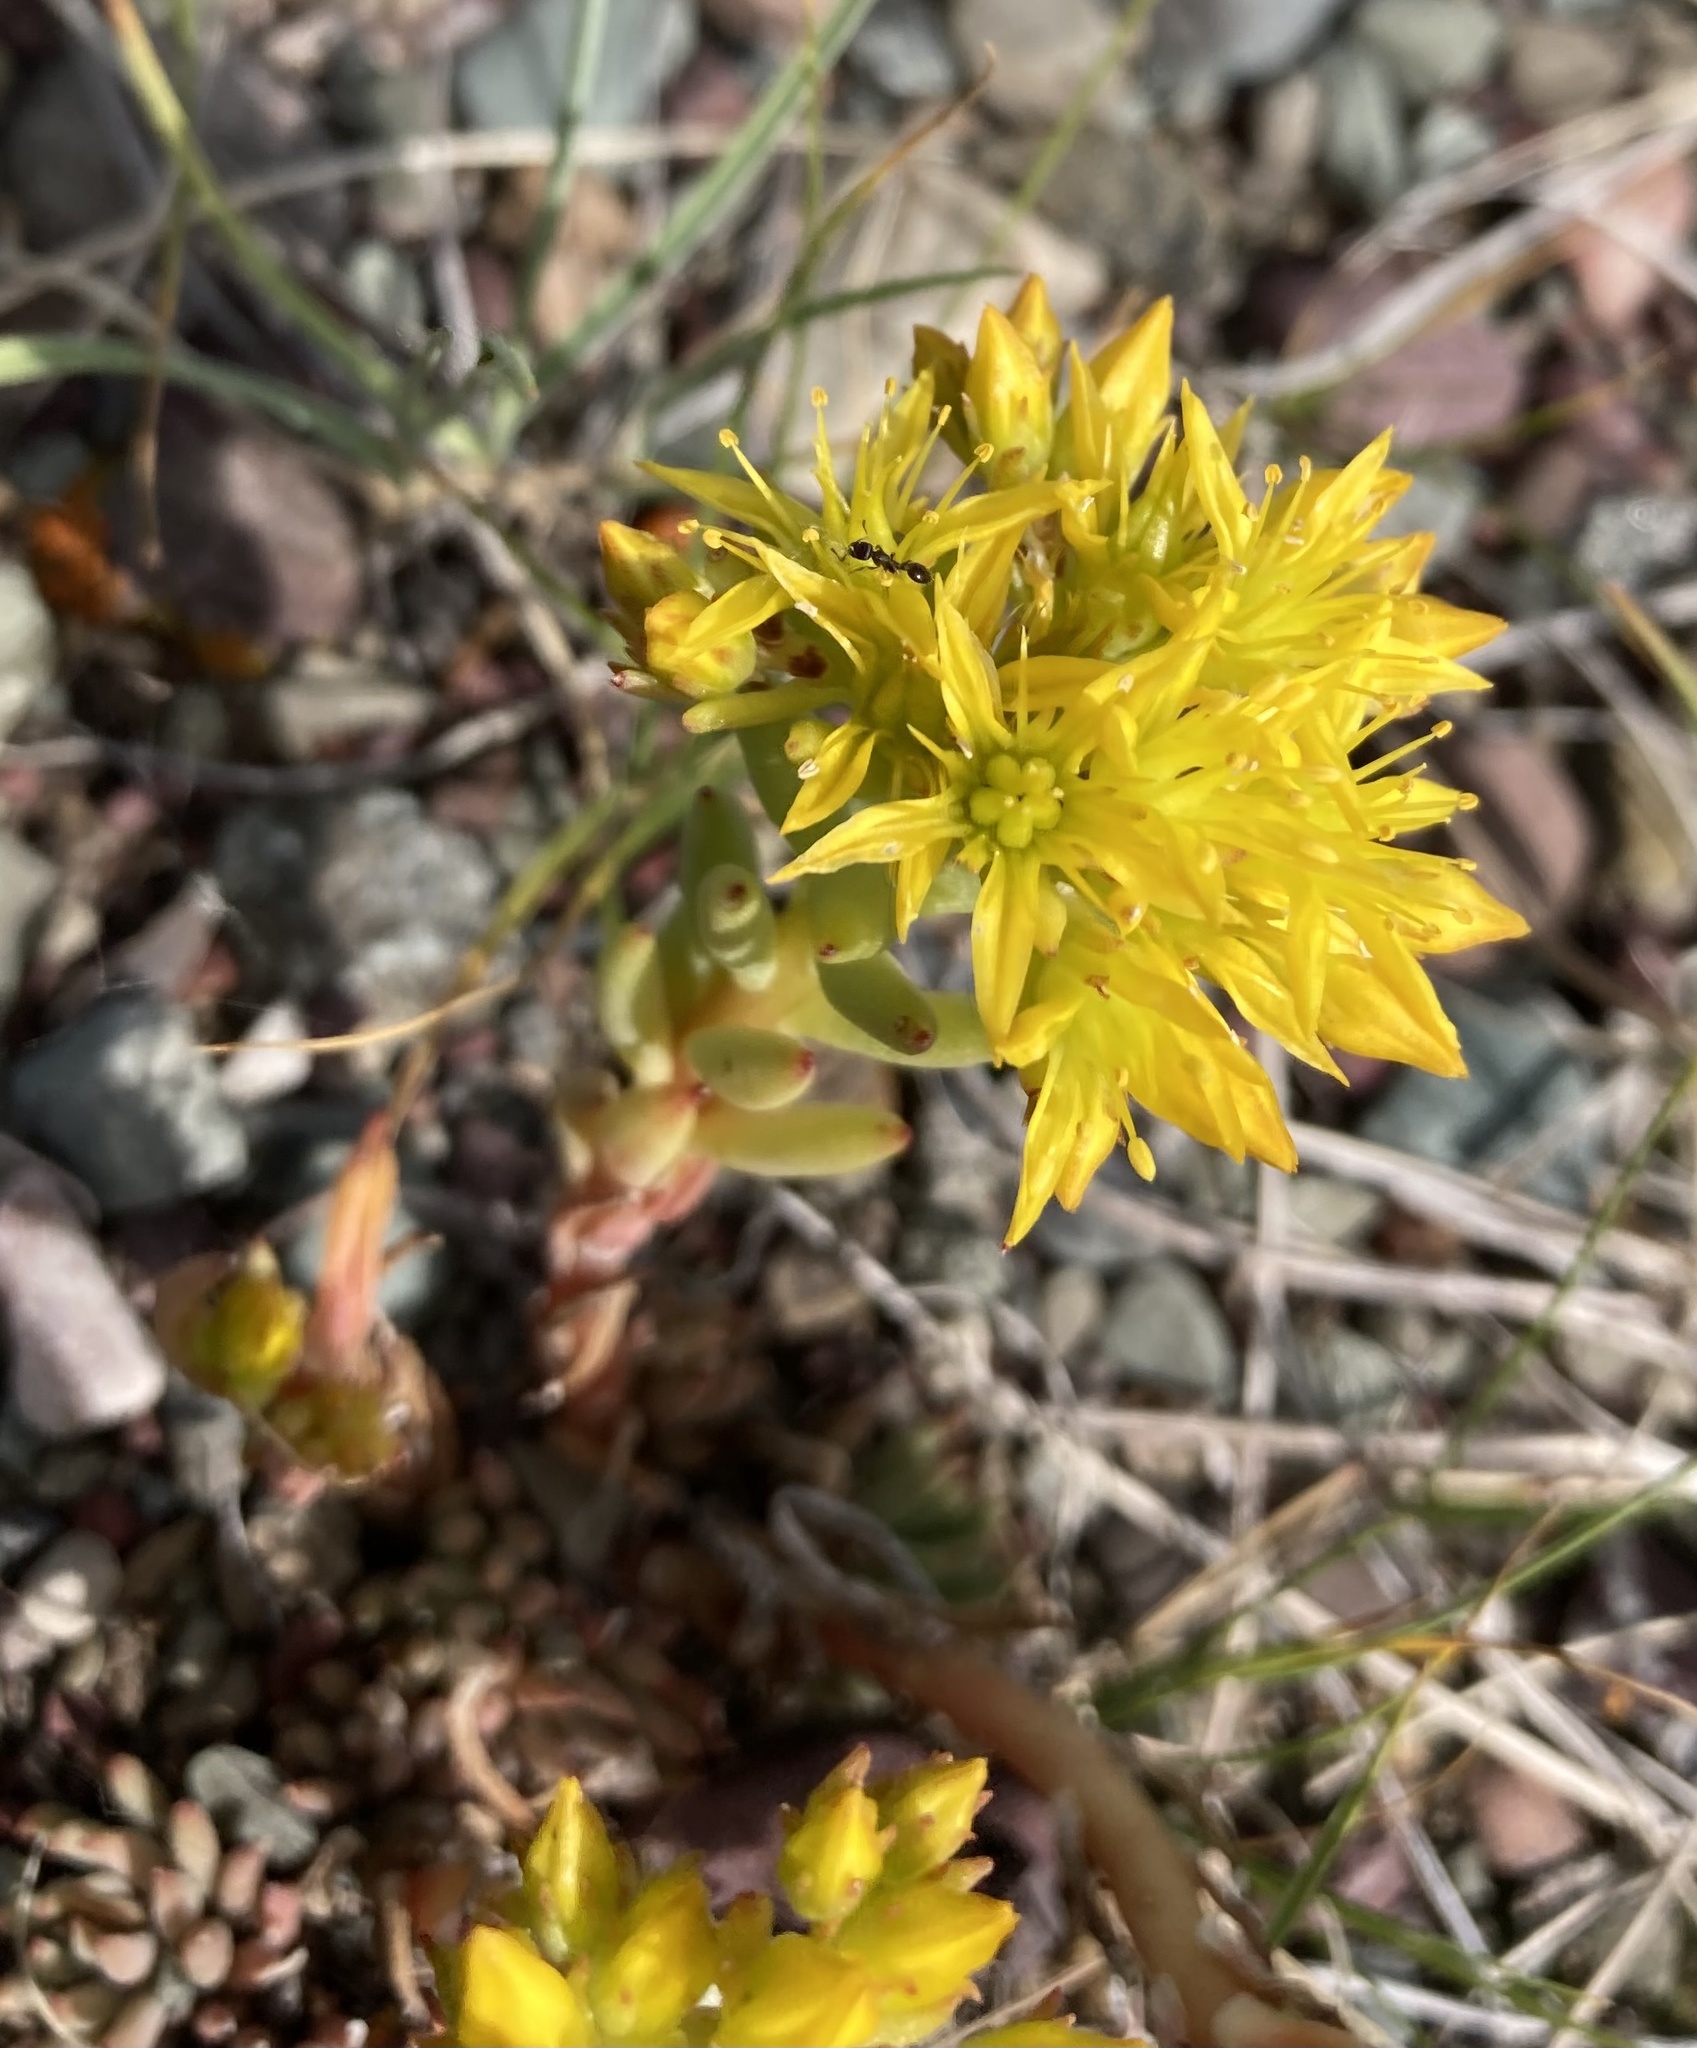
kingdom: Plantae
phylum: Tracheophyta
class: Magnoliopsida
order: Saxifragales
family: Crassulaceae
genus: Sedum
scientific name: Sedum lanceolatum
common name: Common stonecrop
